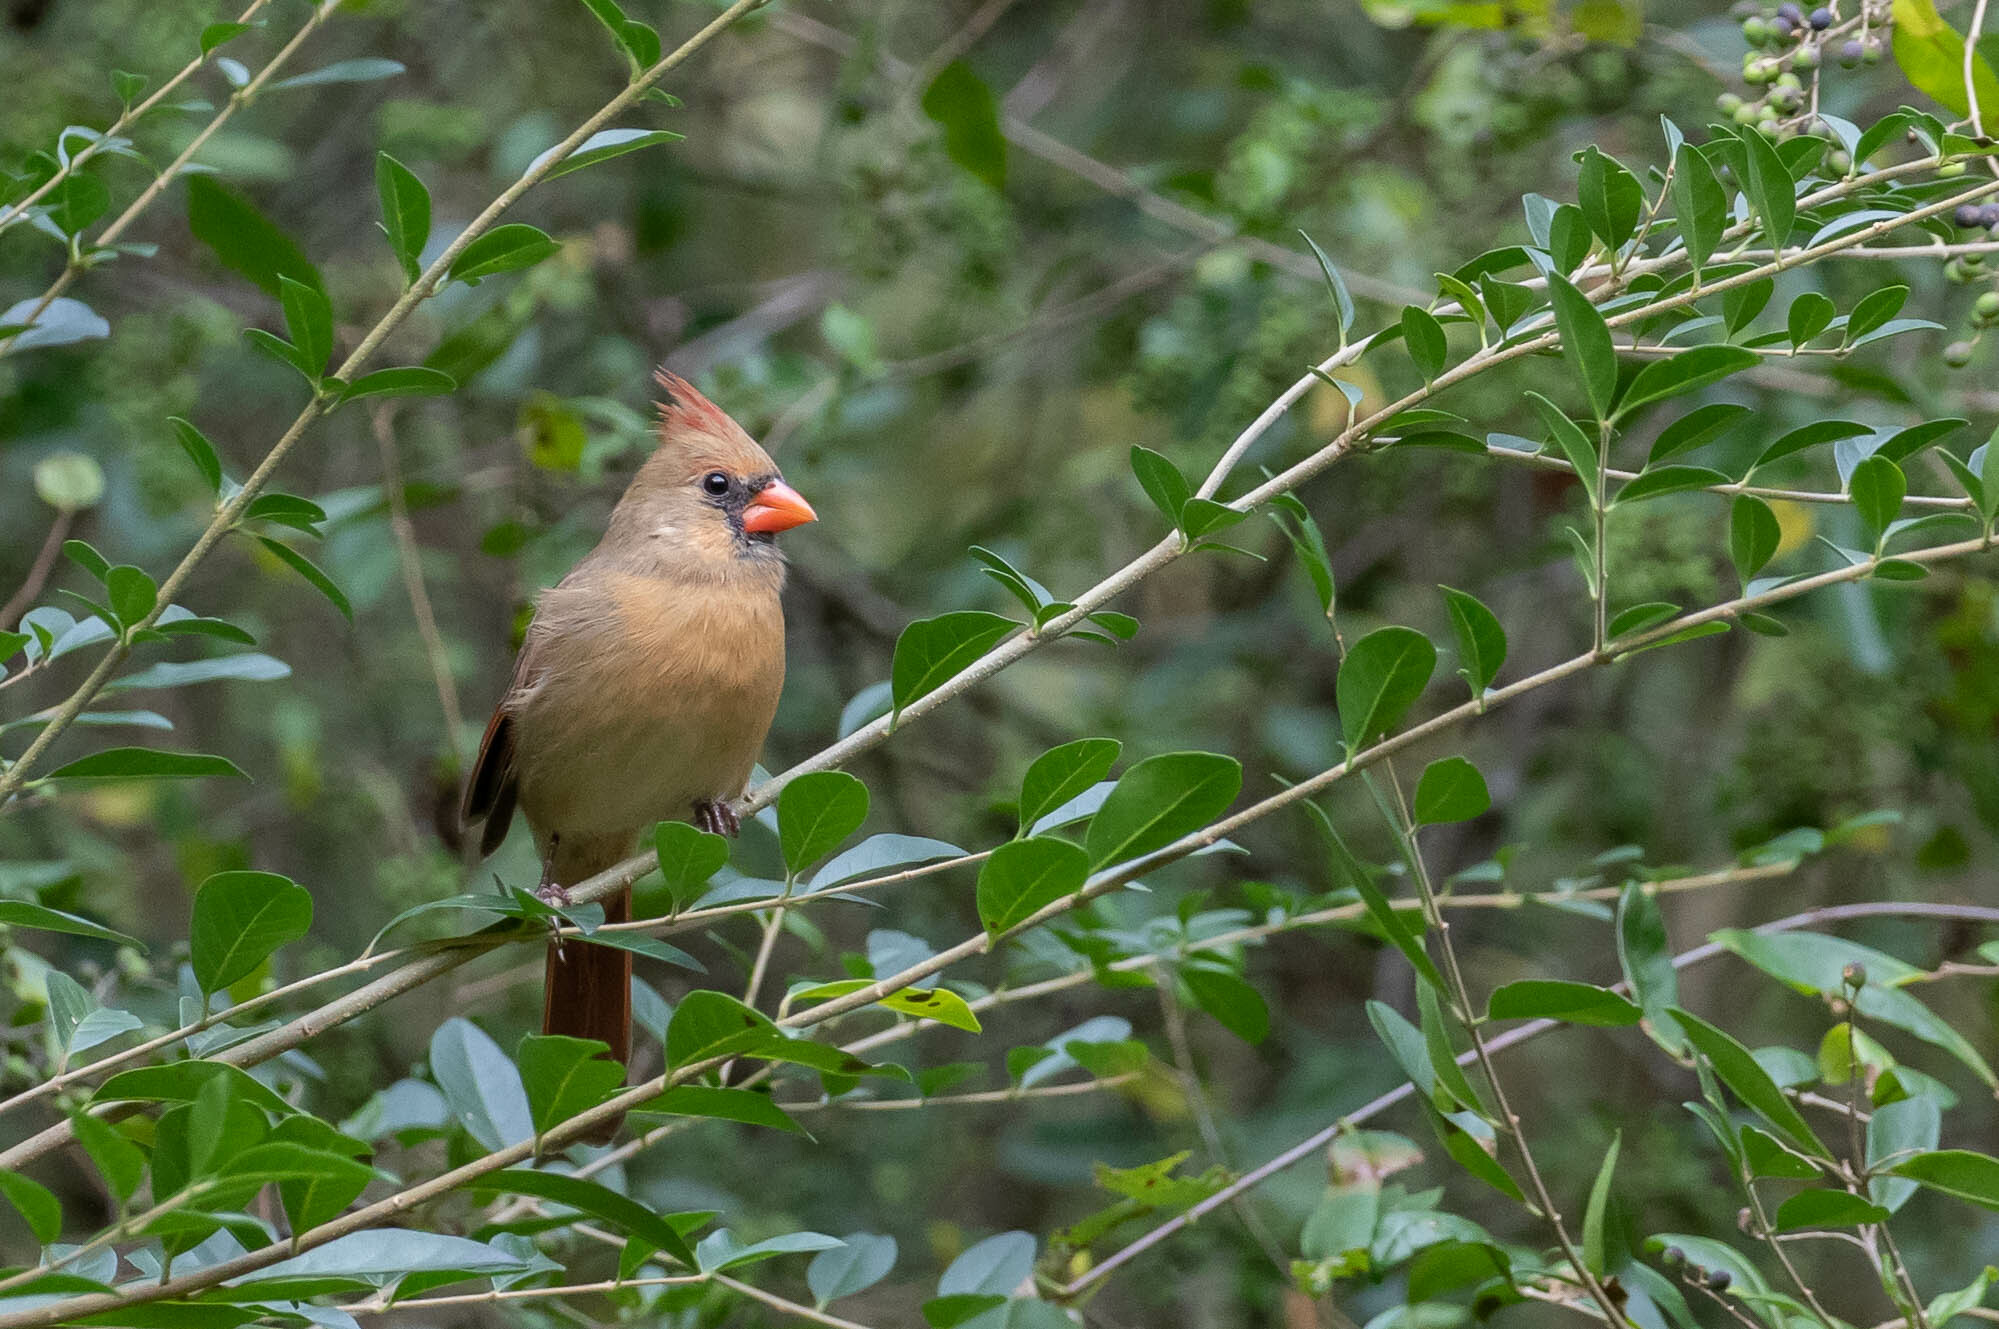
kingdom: Animalia
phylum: Chordata
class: Aves
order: Passeriformes
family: Cardinalidae
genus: Cardinalis
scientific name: Cardinalis cardinalis
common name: Northern cardinal
